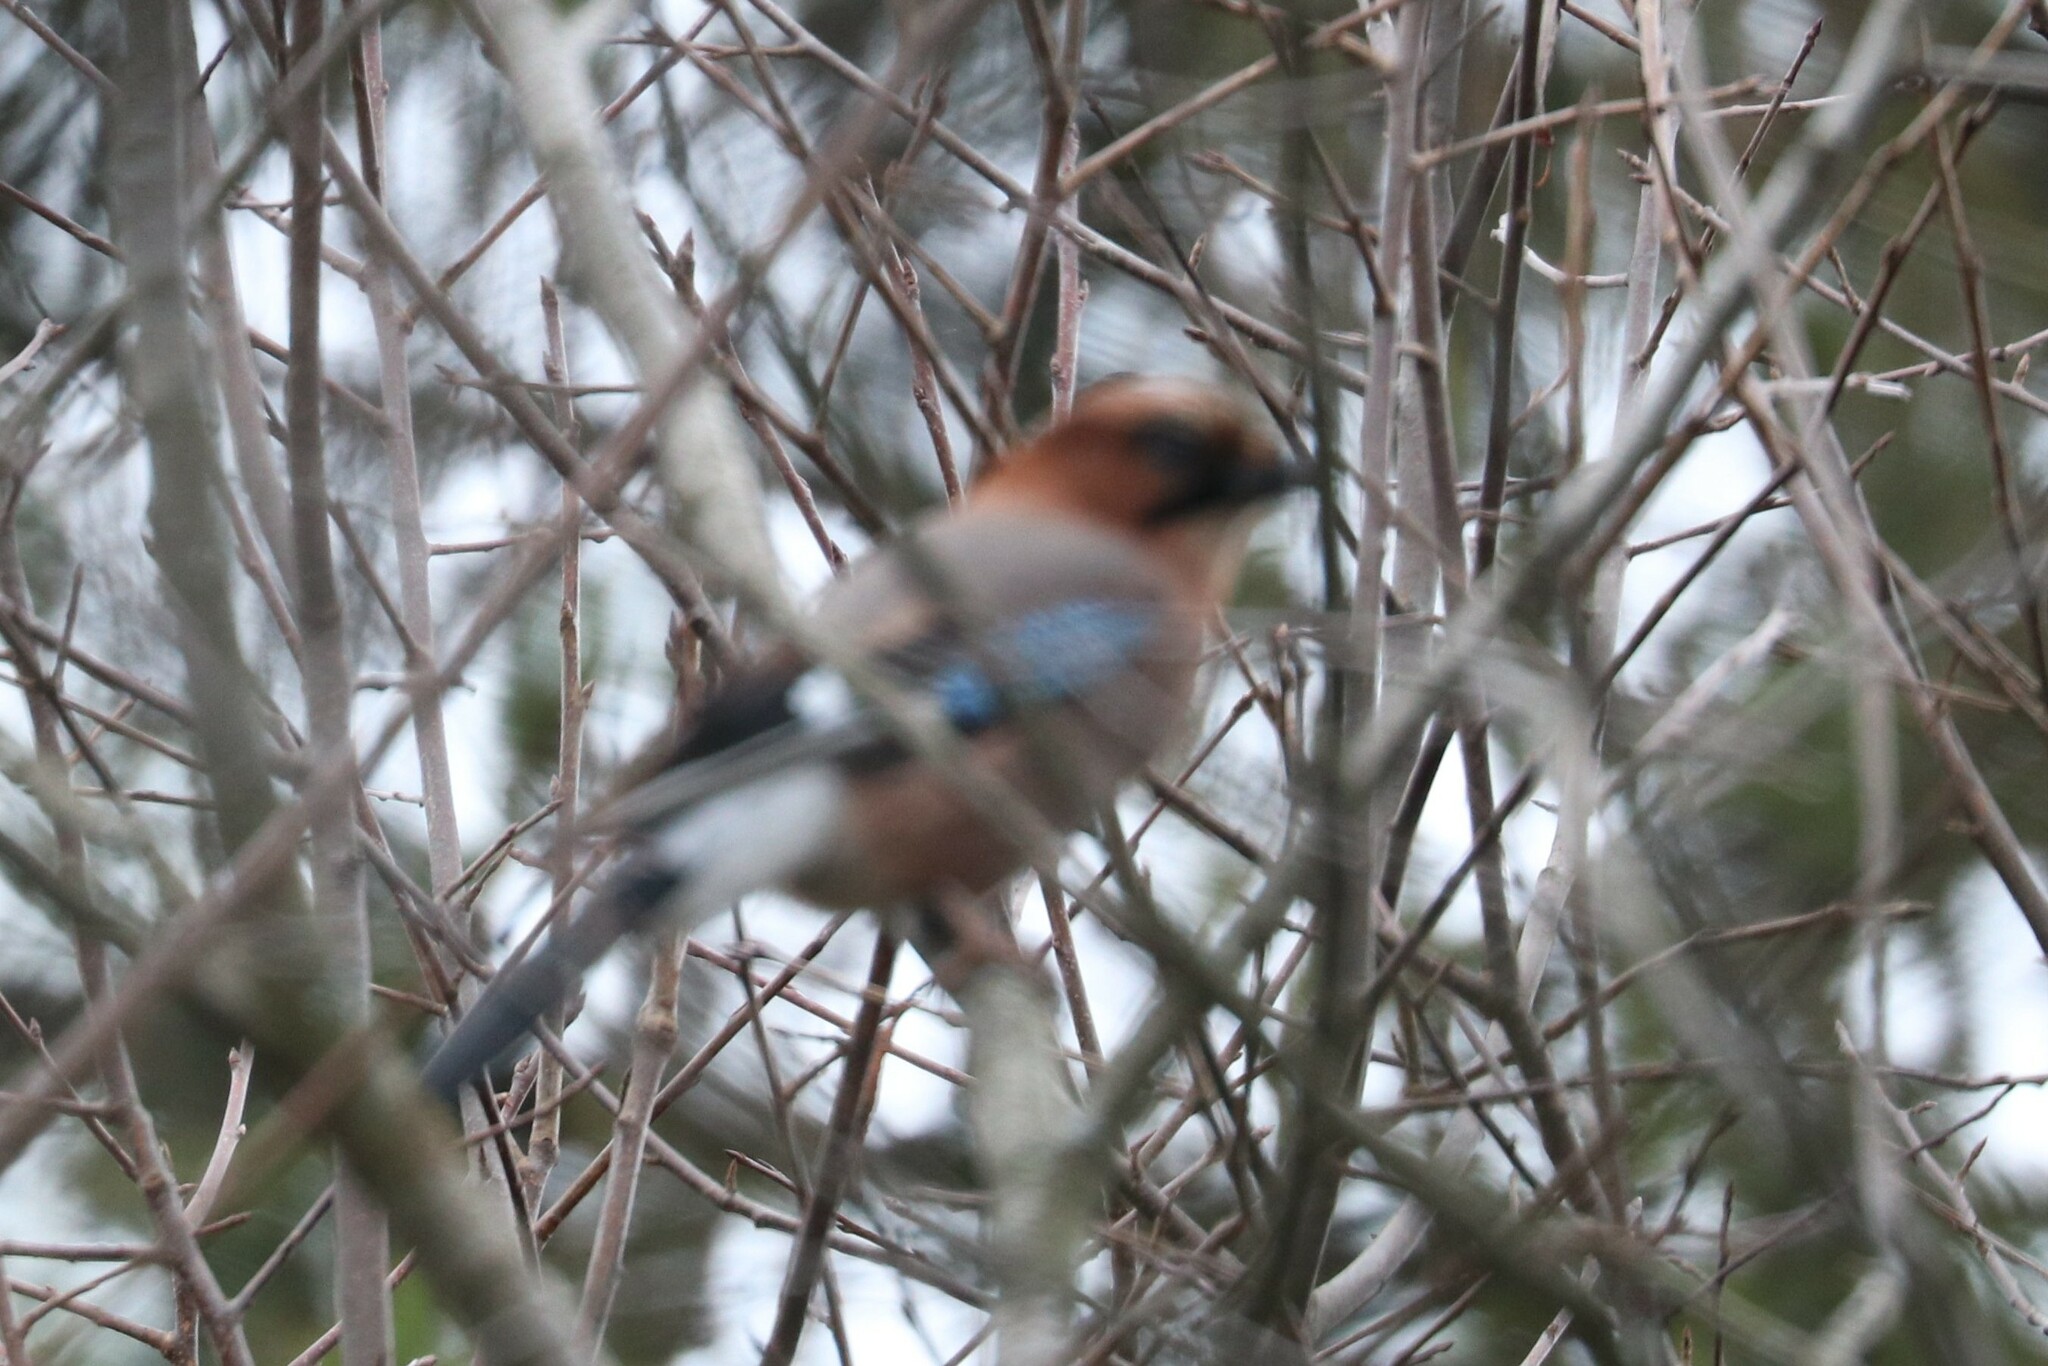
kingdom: Animalia
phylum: Chordata
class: Aves
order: Passeriformes
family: Corvidae
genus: Garrulus
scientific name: Garrulus glandarius
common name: Eurasian jay
